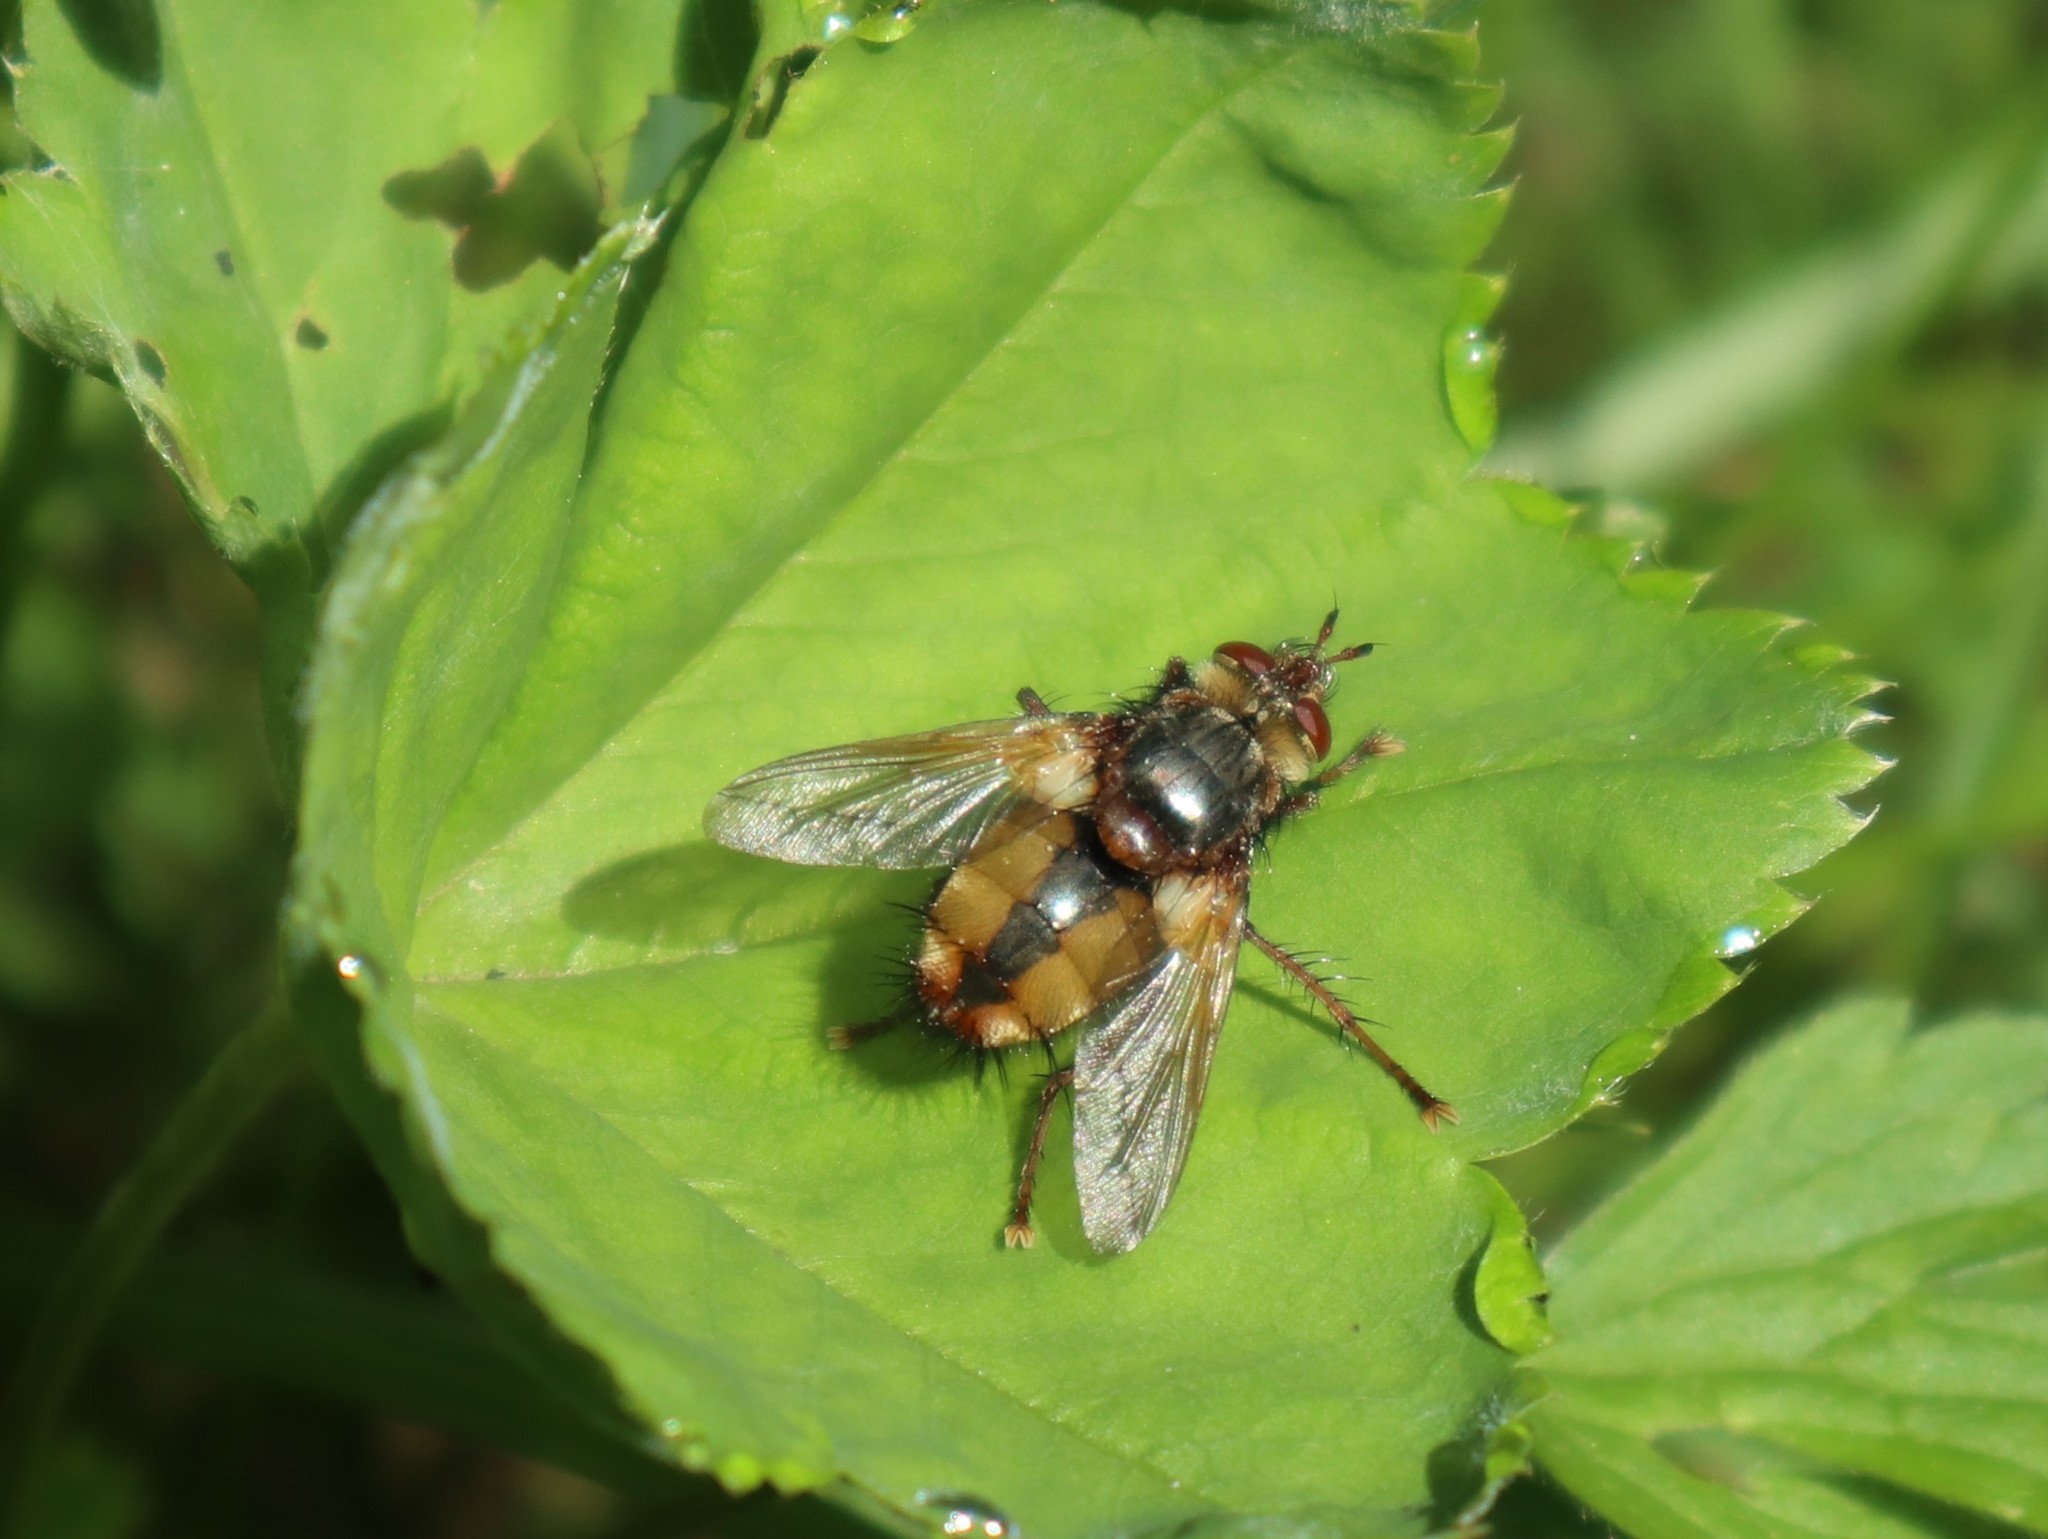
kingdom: Animalia
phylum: Arthropoda
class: Insecta
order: Diptera
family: Tachinidae
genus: Tachina
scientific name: Tachina fera
